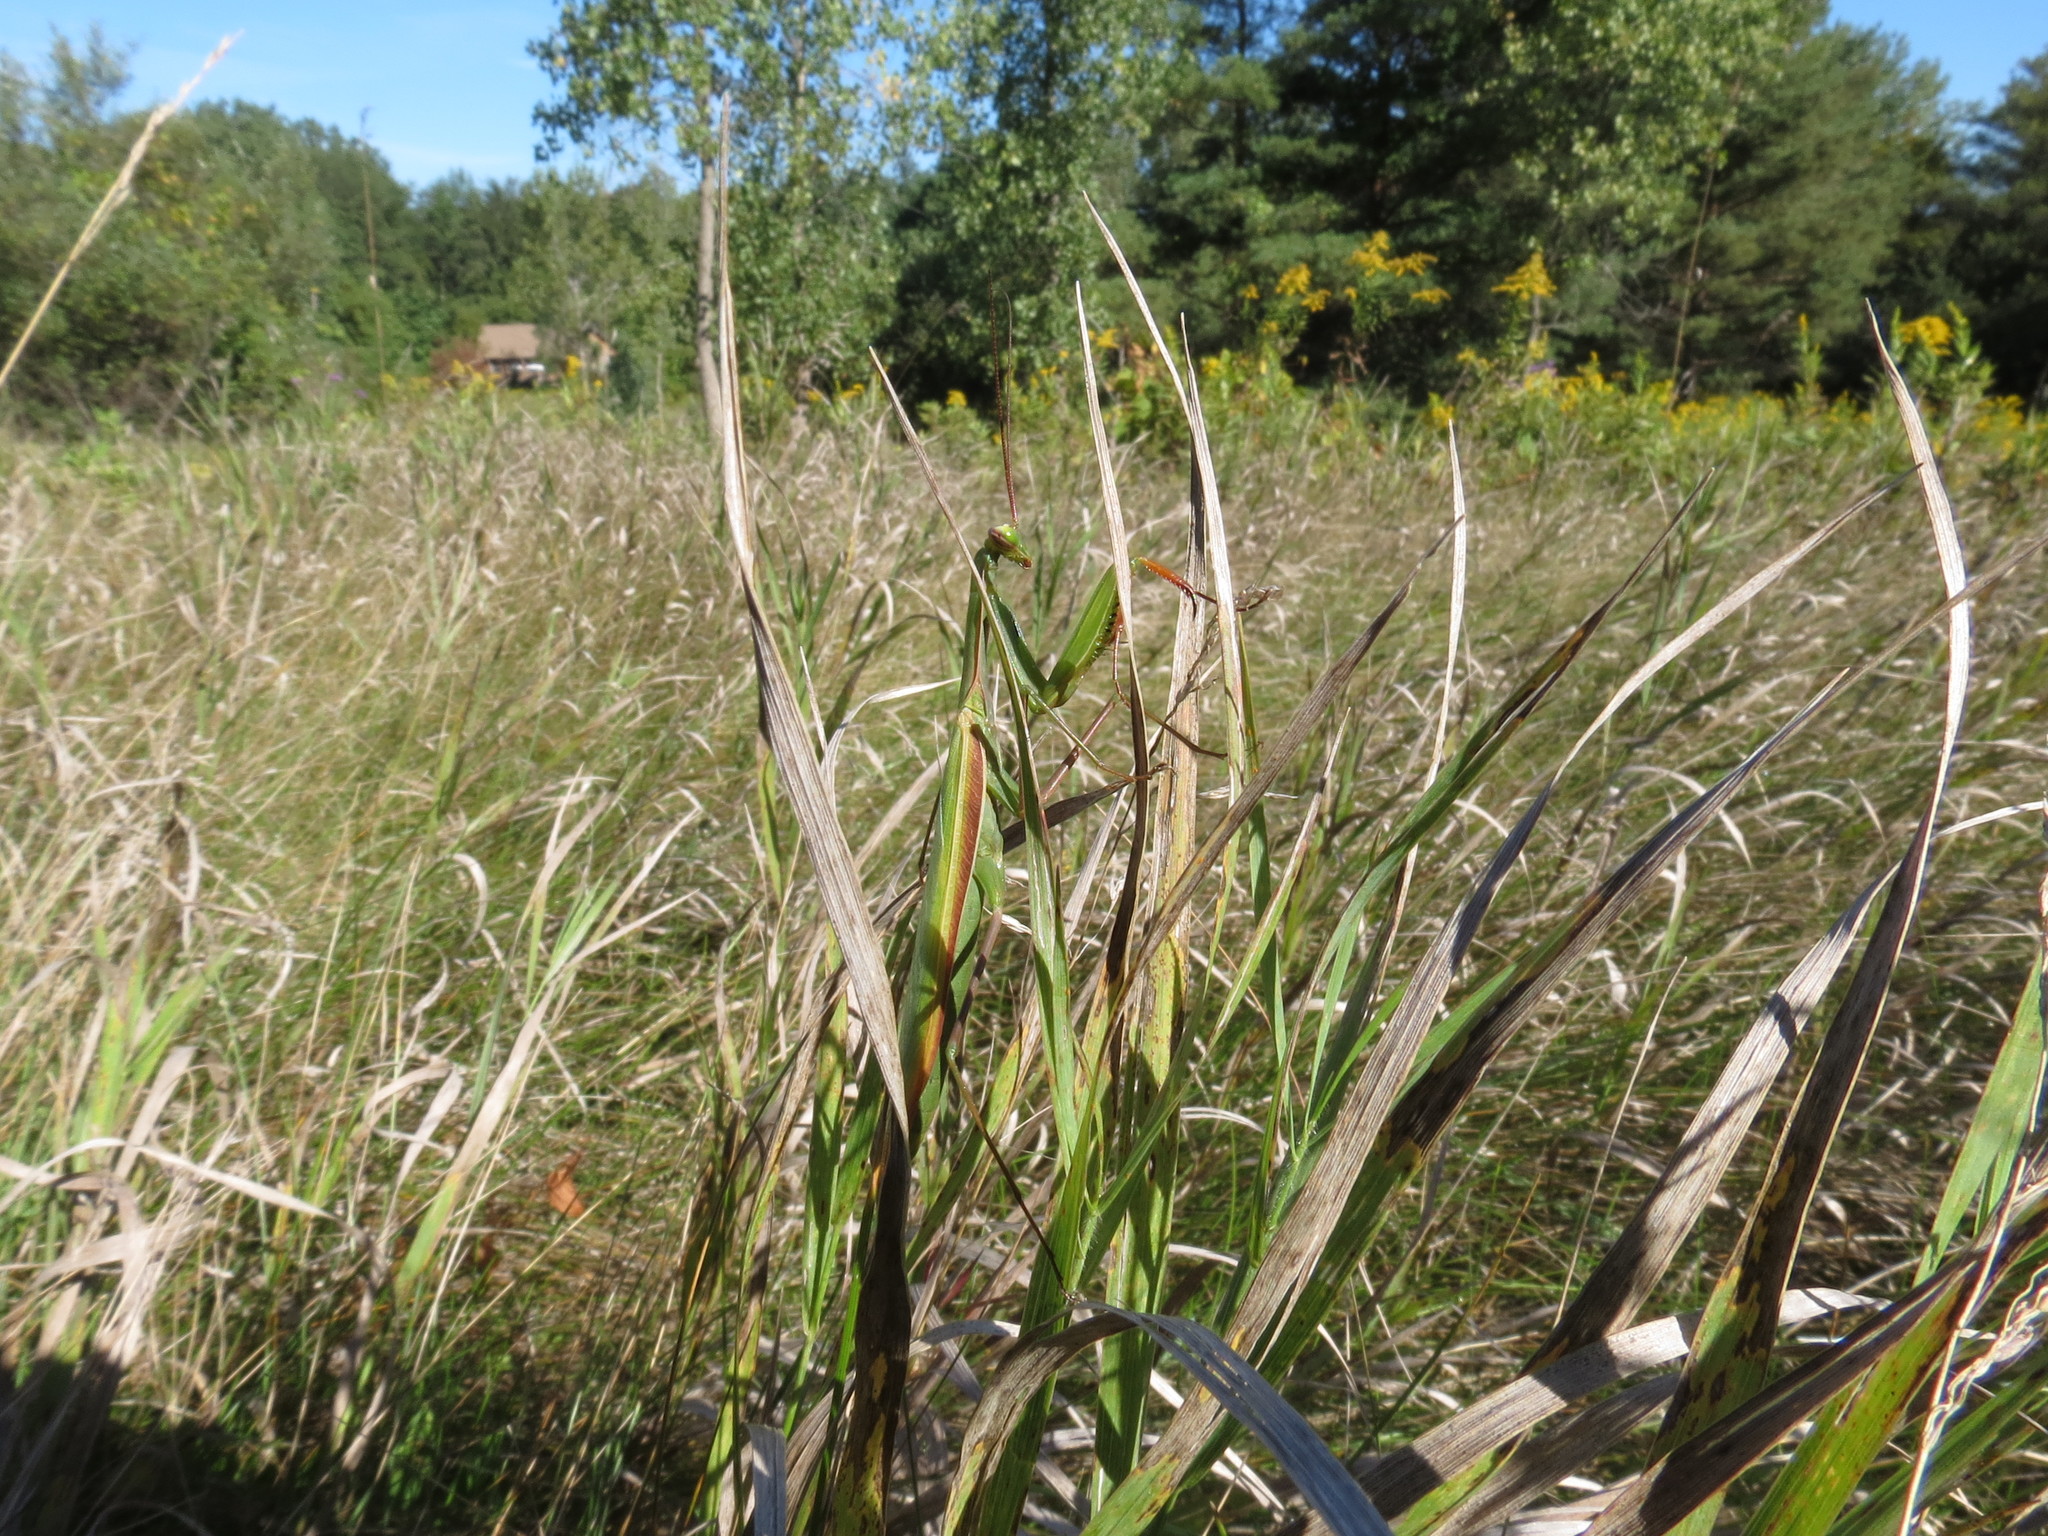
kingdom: Animalia
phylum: Arthropoda
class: Insecta
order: Mantodea
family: Mantidae
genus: Mantis
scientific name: Mantis religiosa
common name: Praying mantis
